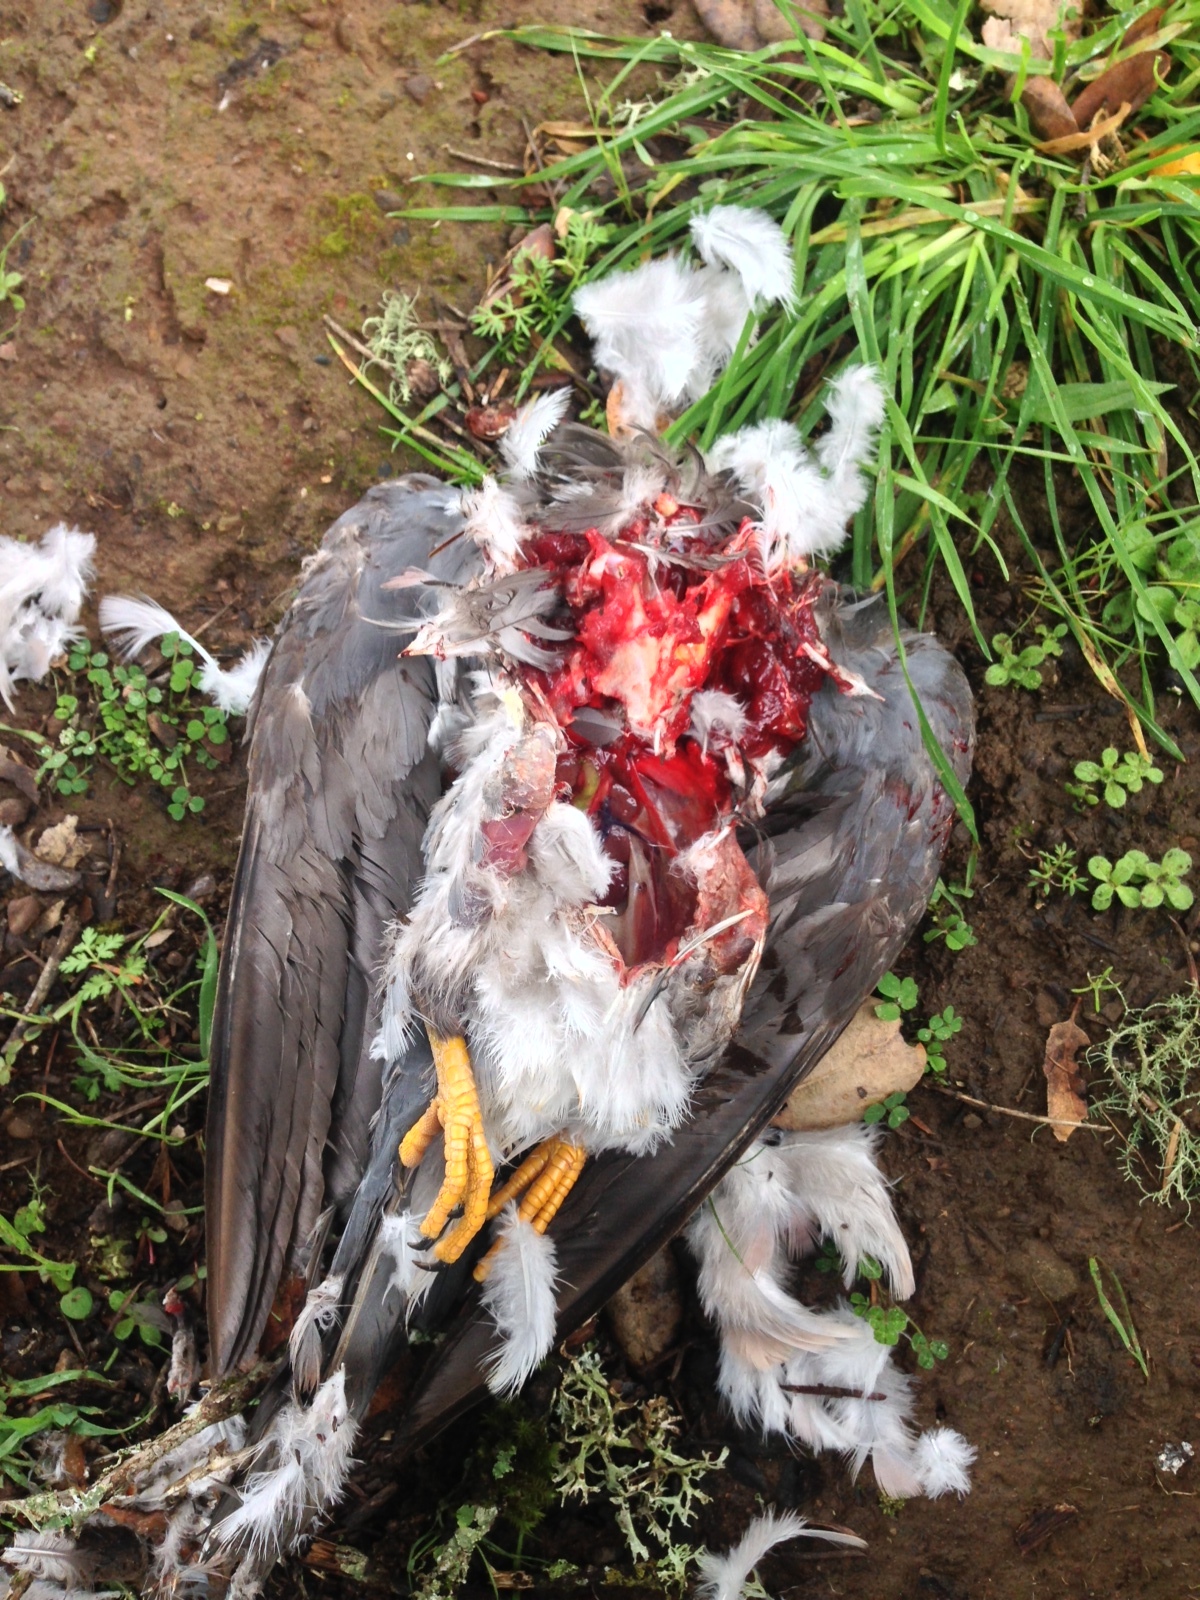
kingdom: Animalia
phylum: Chordata
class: Aves
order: Columbiformes
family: Columbidae
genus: Patagioenas
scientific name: Patagioenas fasciata
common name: Band-tailed pigeon
